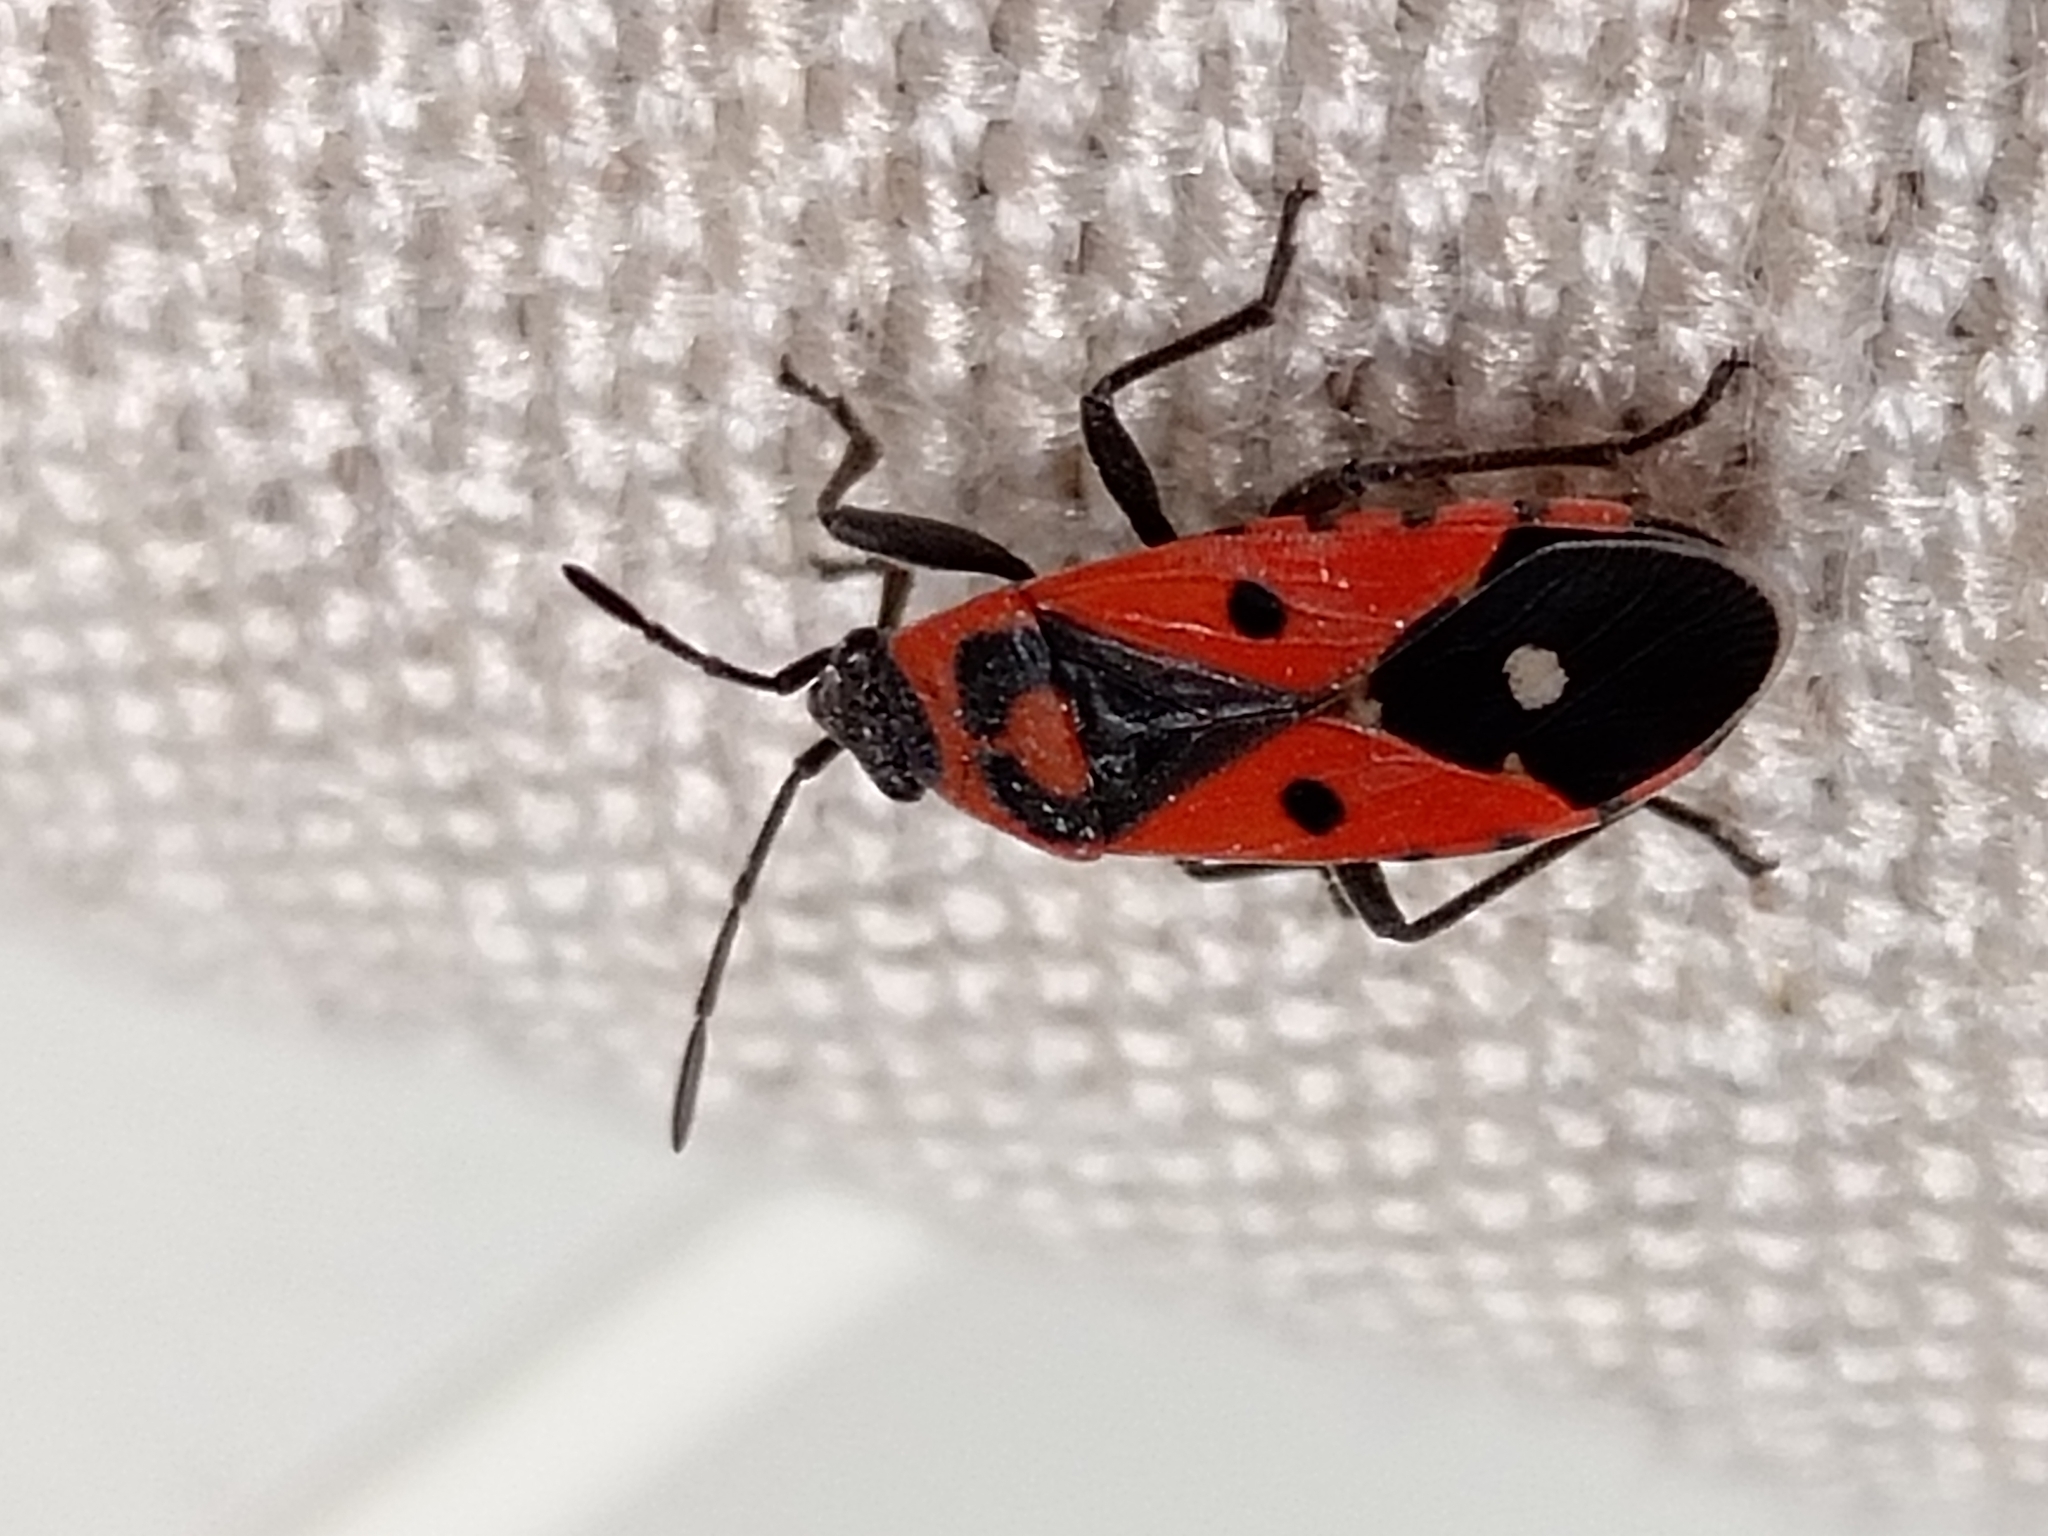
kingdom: Animalia
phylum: Arthropoda
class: Insecta
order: Hemiptera
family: Lygaeidae
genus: Melanocoryphus
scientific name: Melanocoryphus albomaculatus
